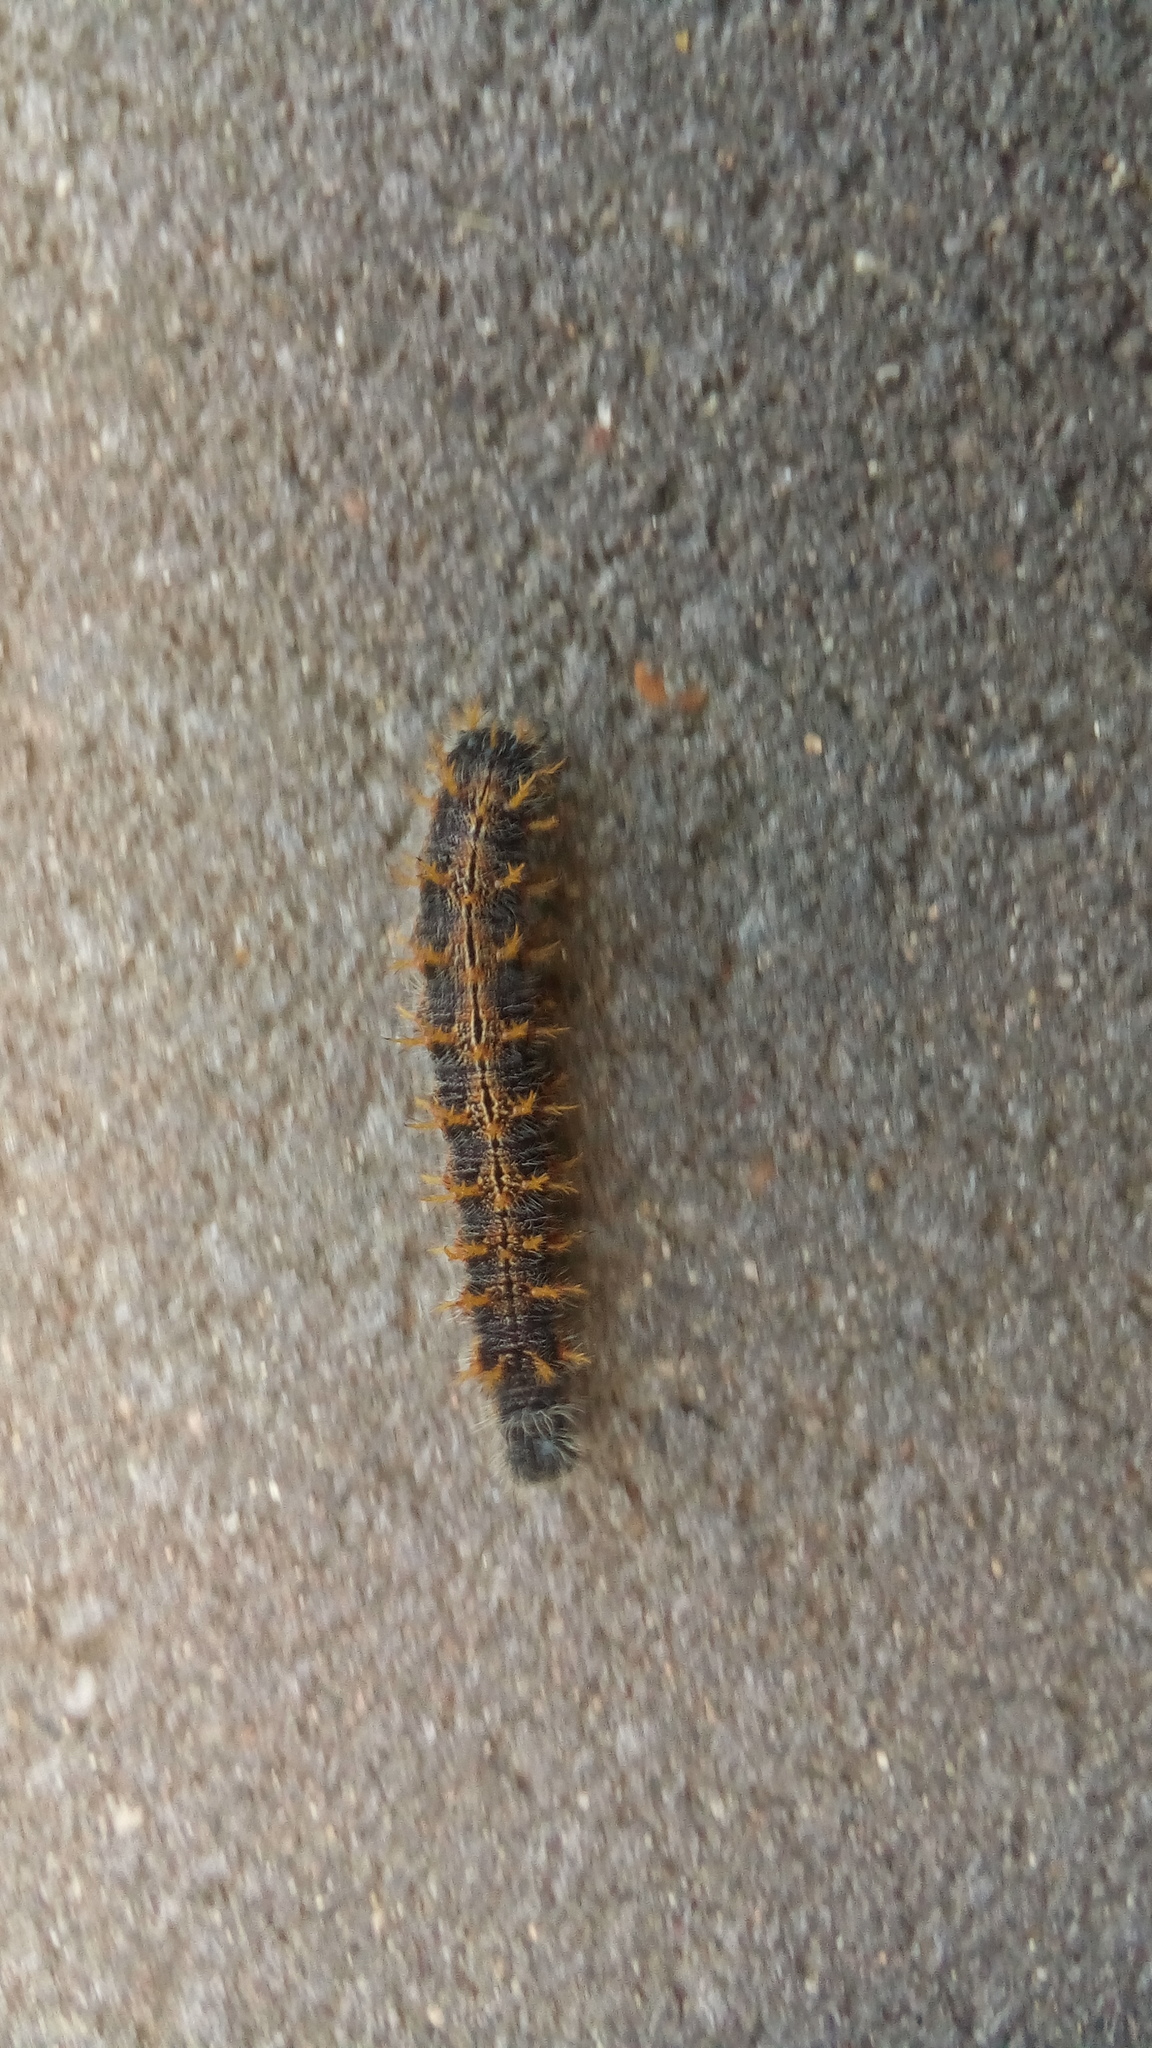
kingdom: Animalia
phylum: Arthropoda
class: Insecta
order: Lepidoptera
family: Nymphalidae
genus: Nymphalis
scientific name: Nymphalis polychloros
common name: Large tortoiseshell
